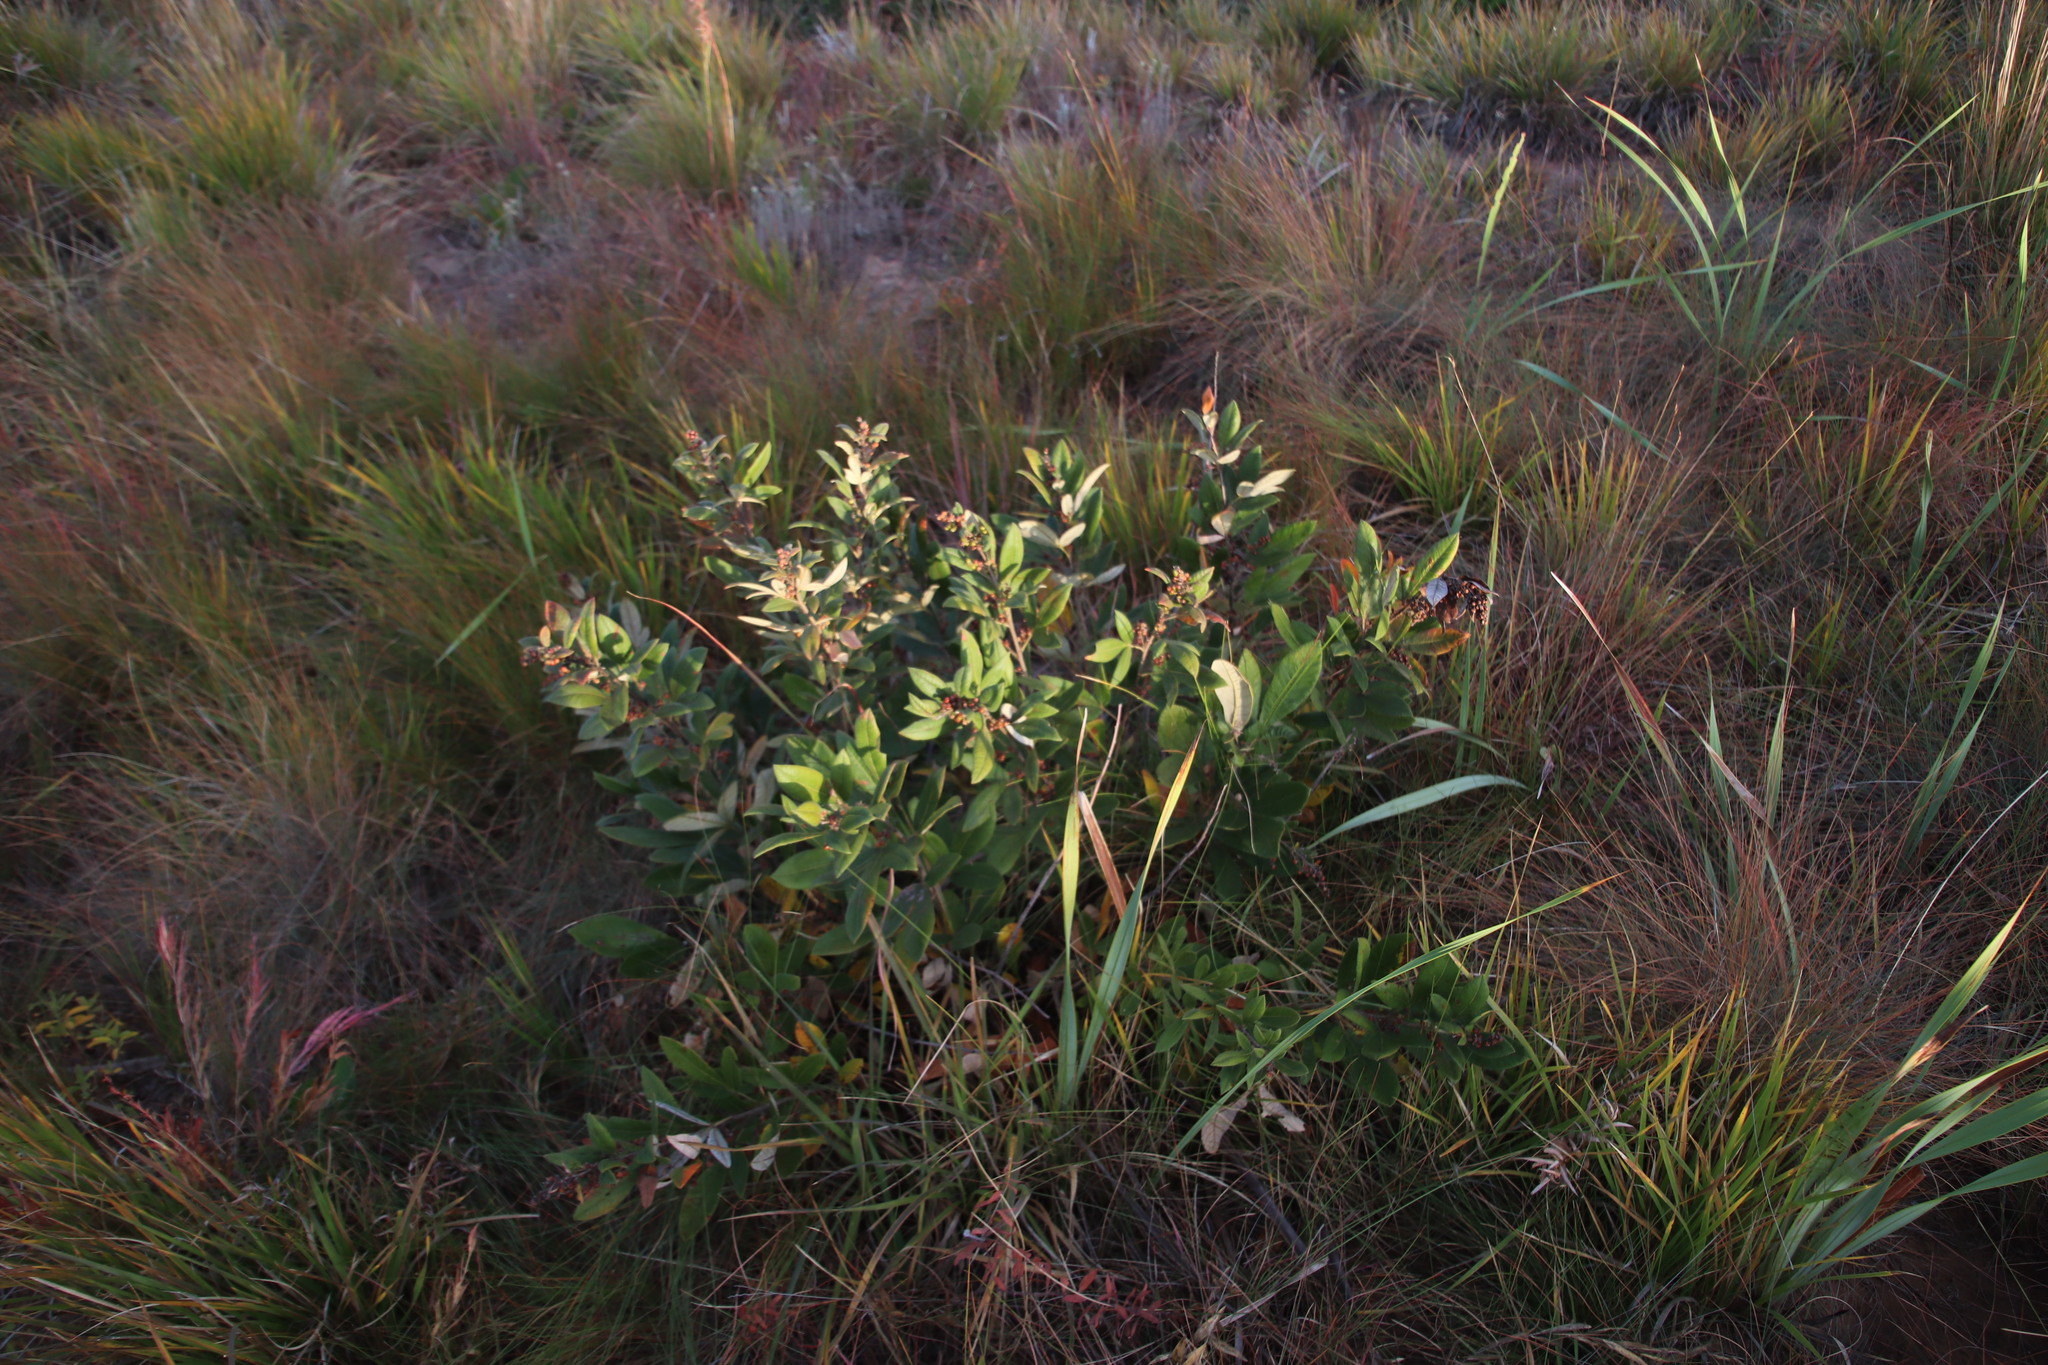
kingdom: Plantae
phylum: Tracheophyta
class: Magnoliopsida
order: Sapindales
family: Anacardiaceae
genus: Searsia
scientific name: Searsia discolor
